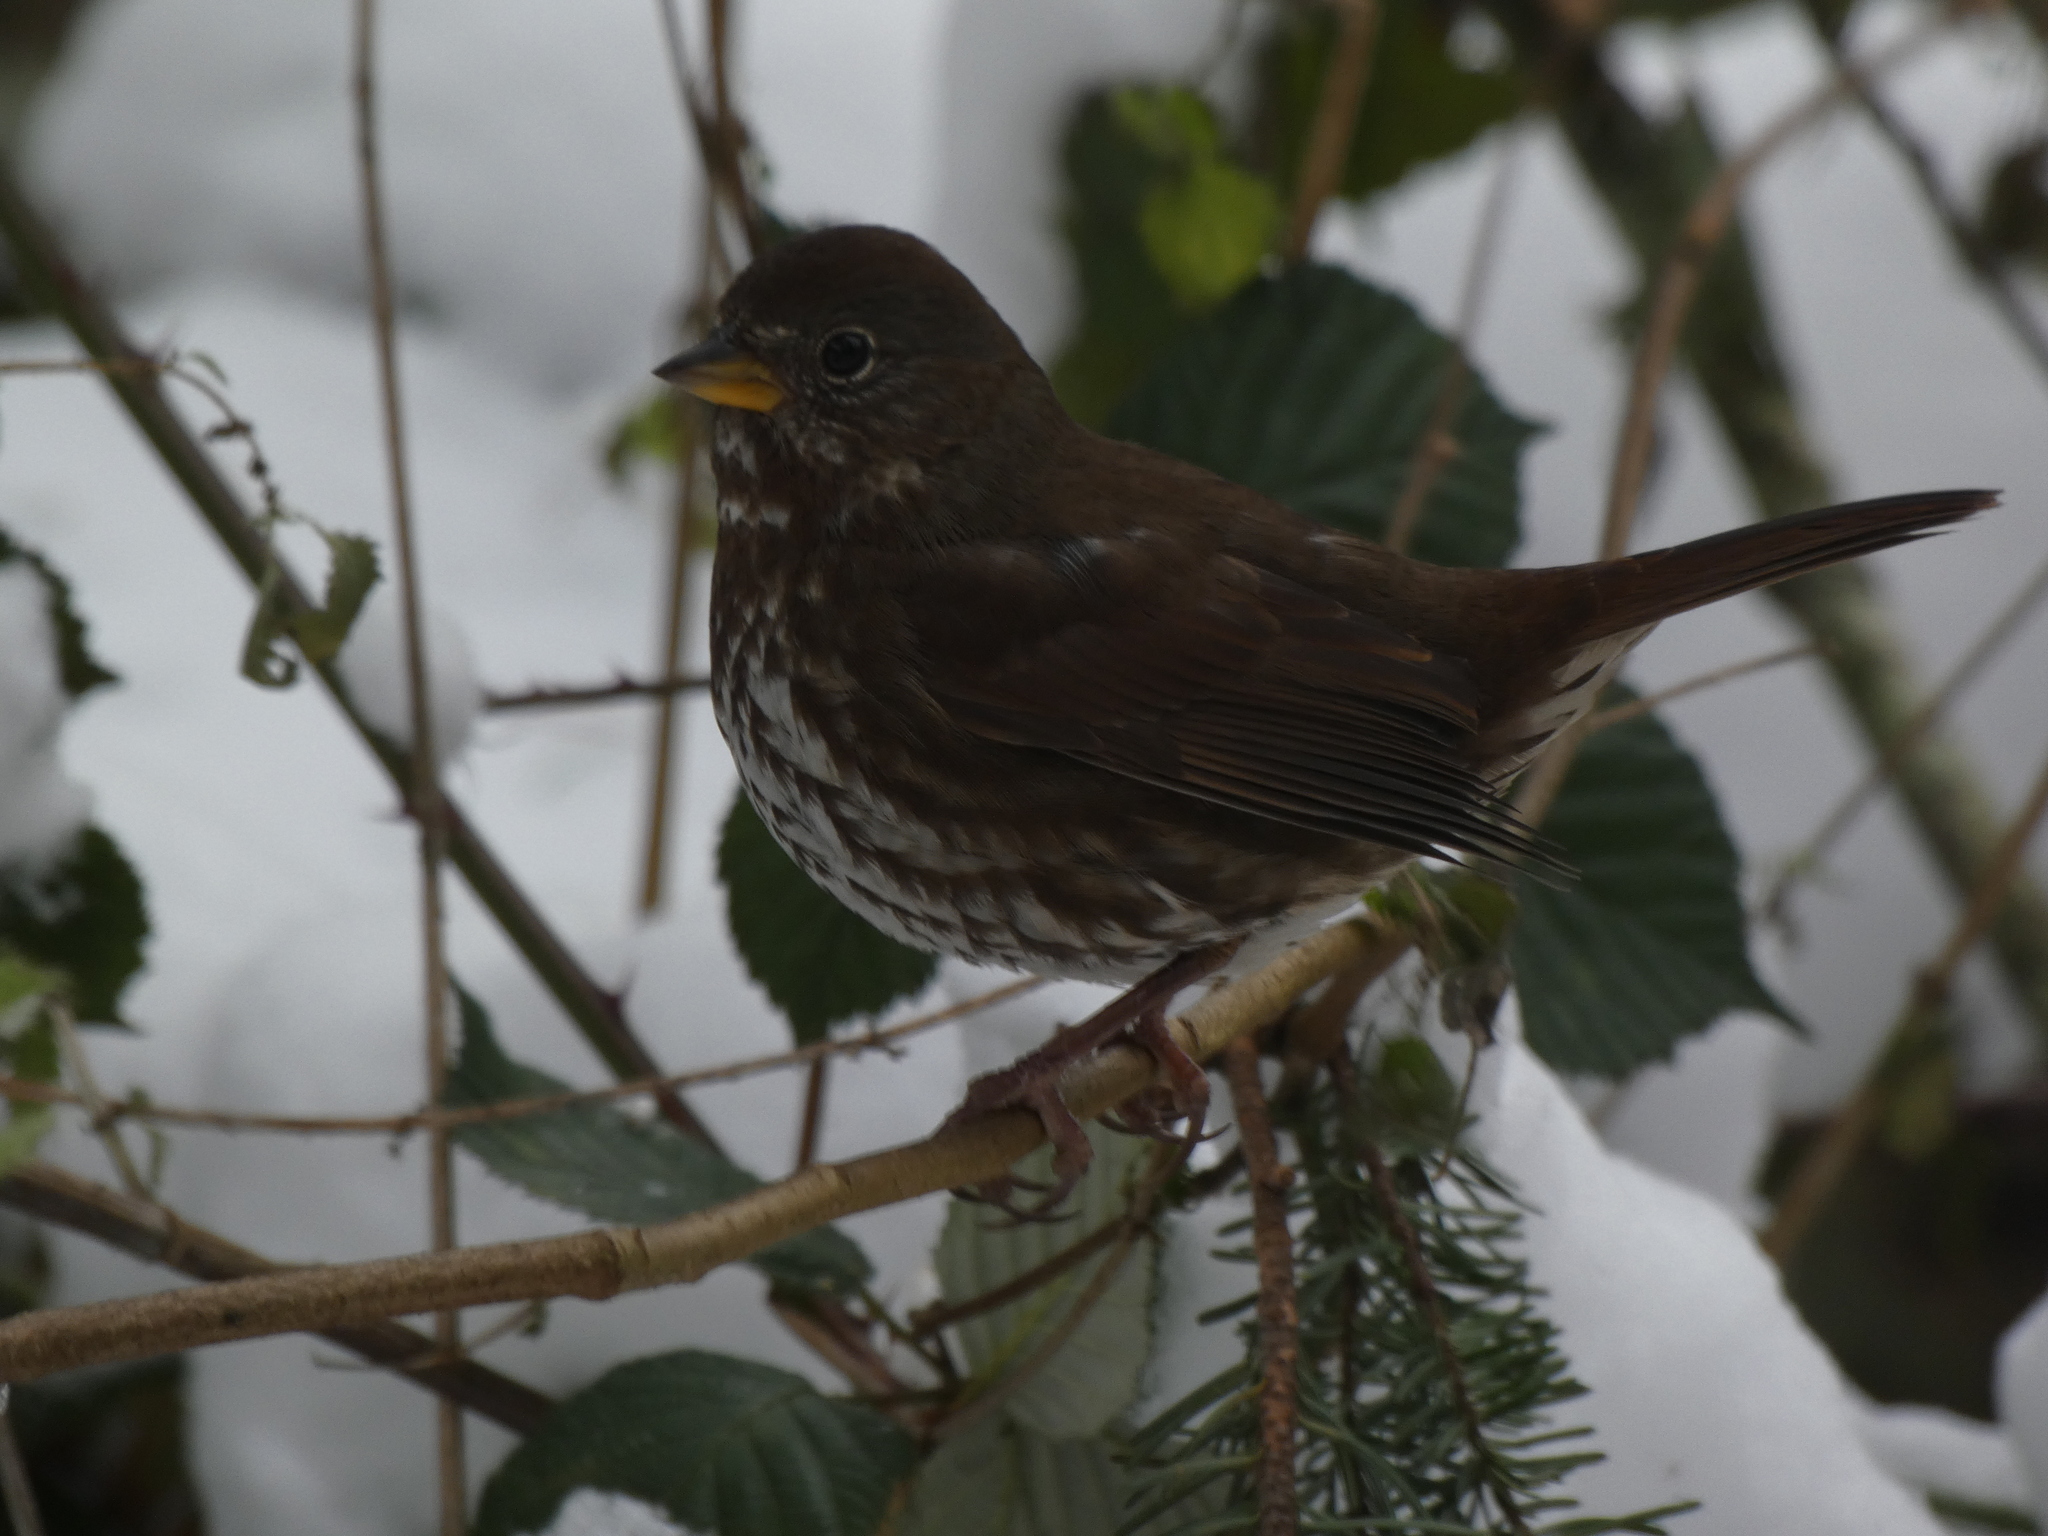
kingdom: Animalia
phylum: Chordata
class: Aves
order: Passeriformes
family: Passerellidae
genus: Passerella
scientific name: Passerella iliaca
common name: Fox sparrow
